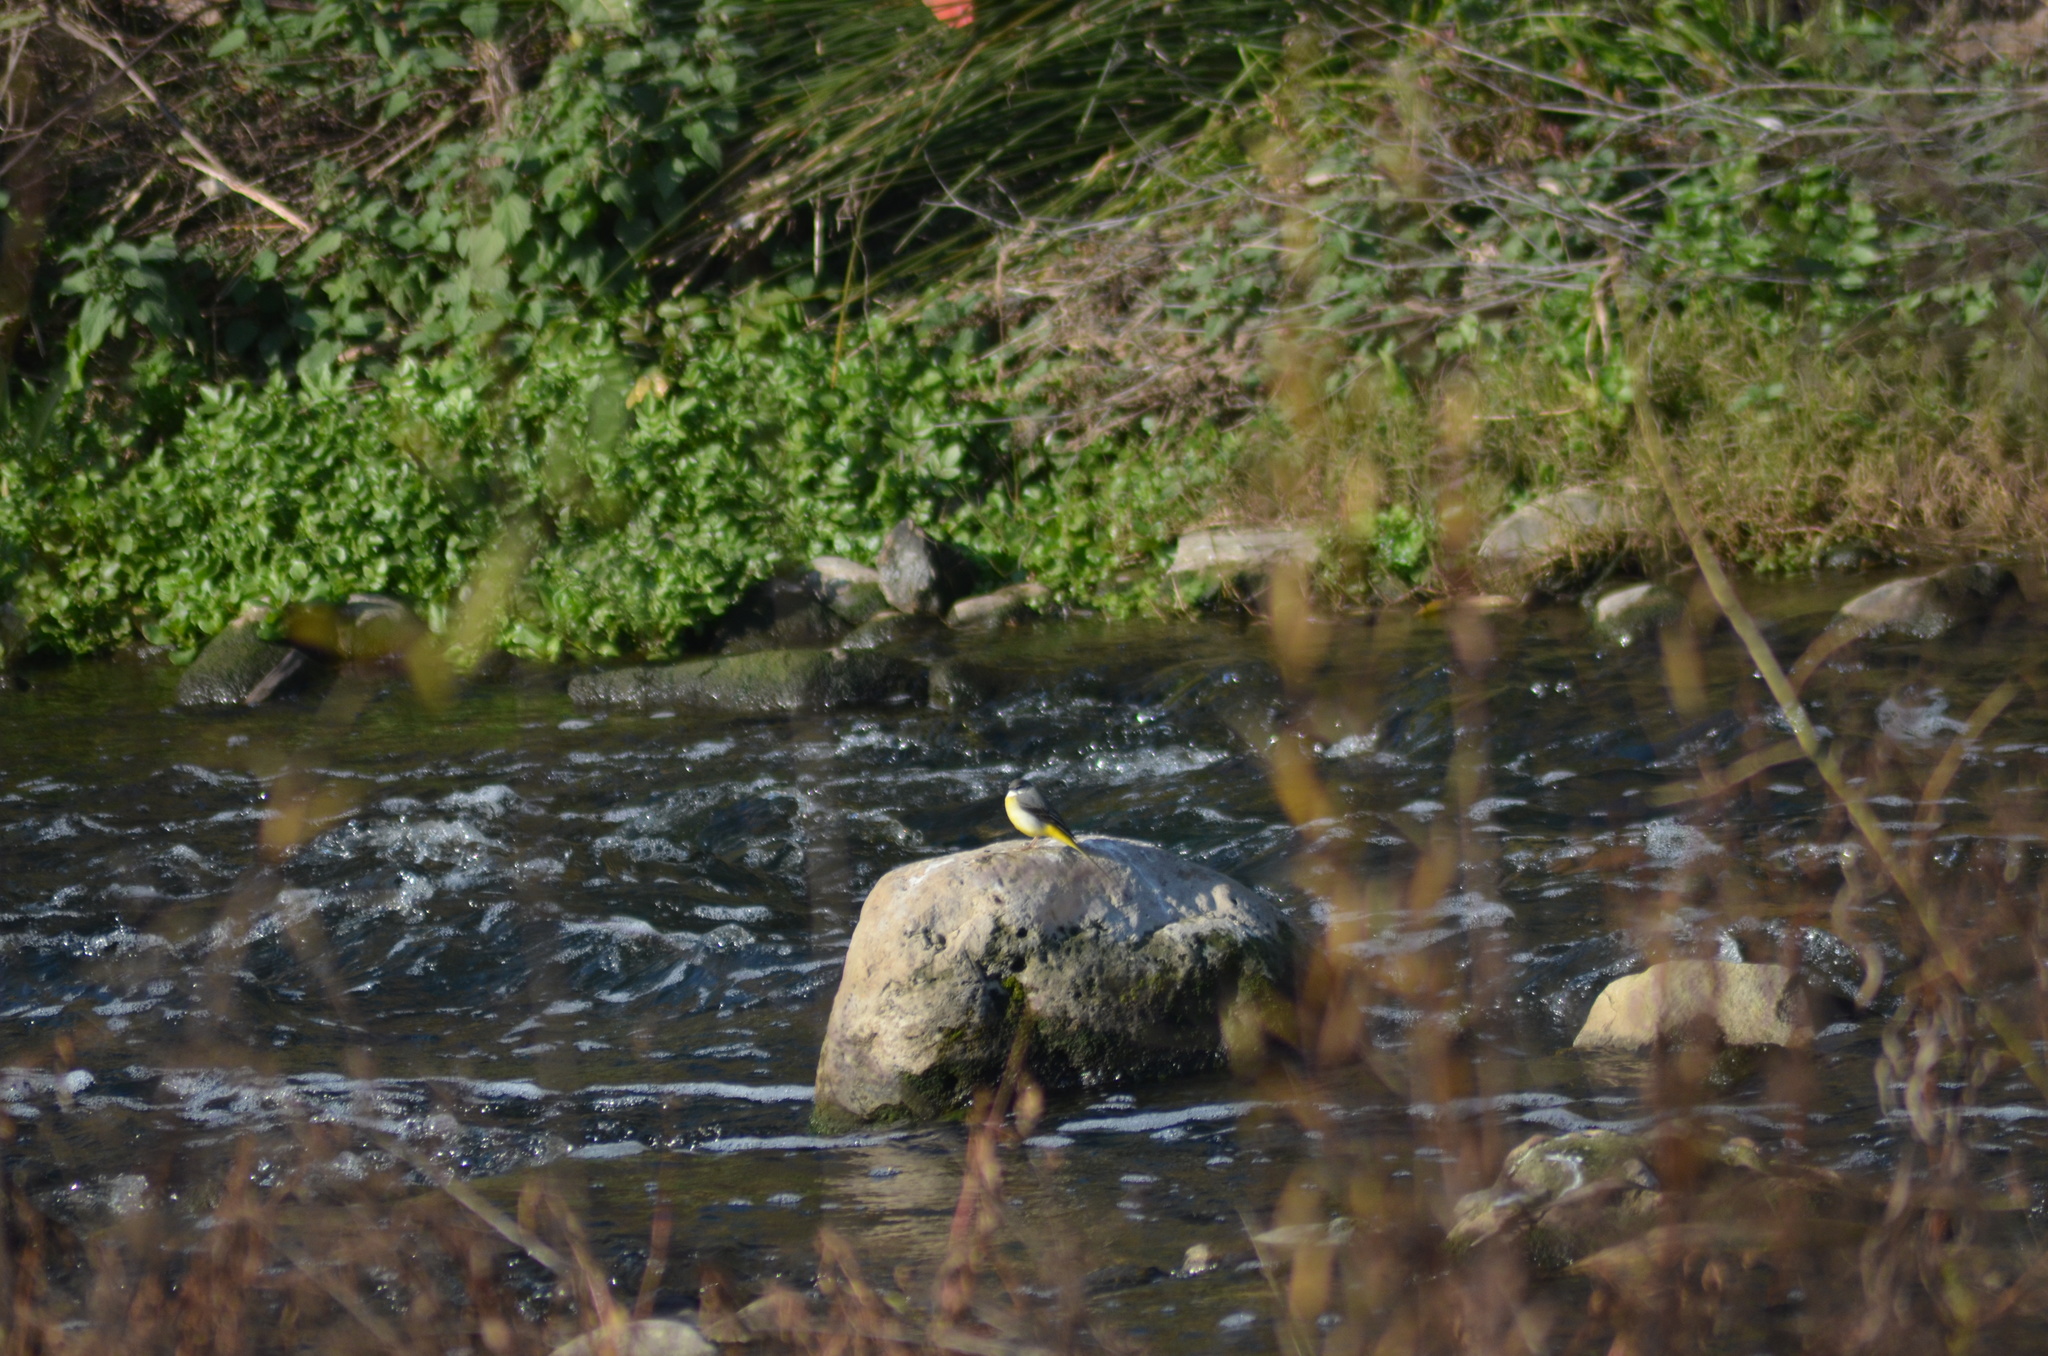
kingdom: Animalia
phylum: Chordata
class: Aves
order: Passeriformes
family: Motacillidae
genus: Motacilla
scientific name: Motacilla cinerea
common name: Grey wagtail
